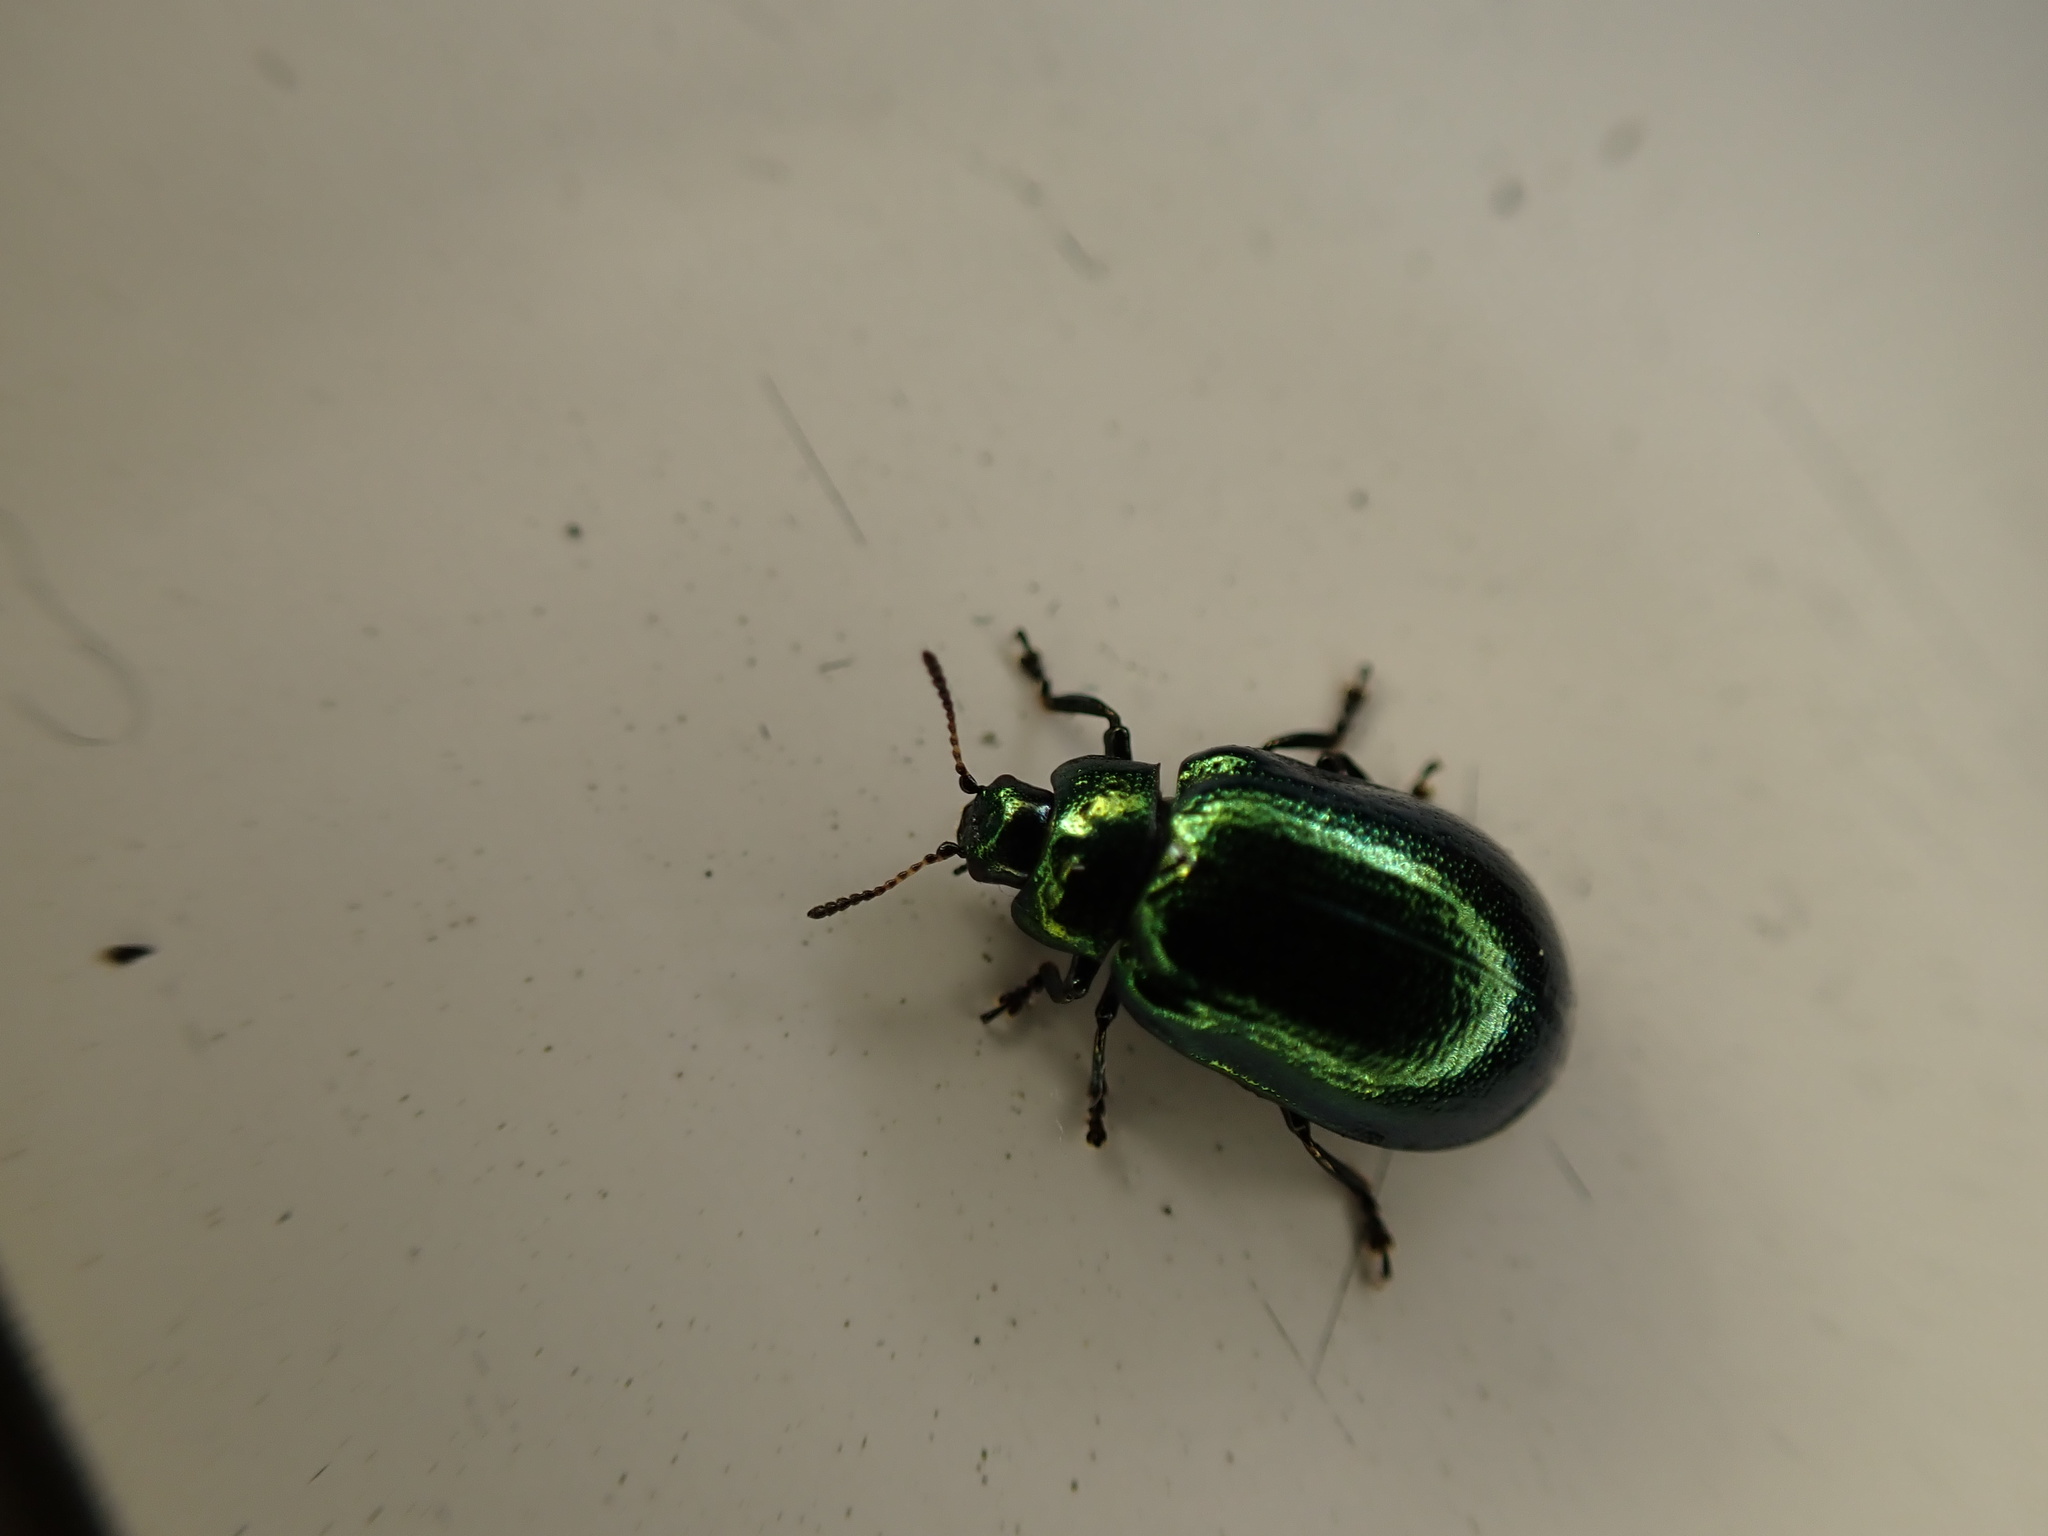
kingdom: Animalia
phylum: Arthropoda
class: Insecta
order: Coleoptera
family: Chrysomelidae
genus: Plagiosterna
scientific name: Plagiosterna aenea
